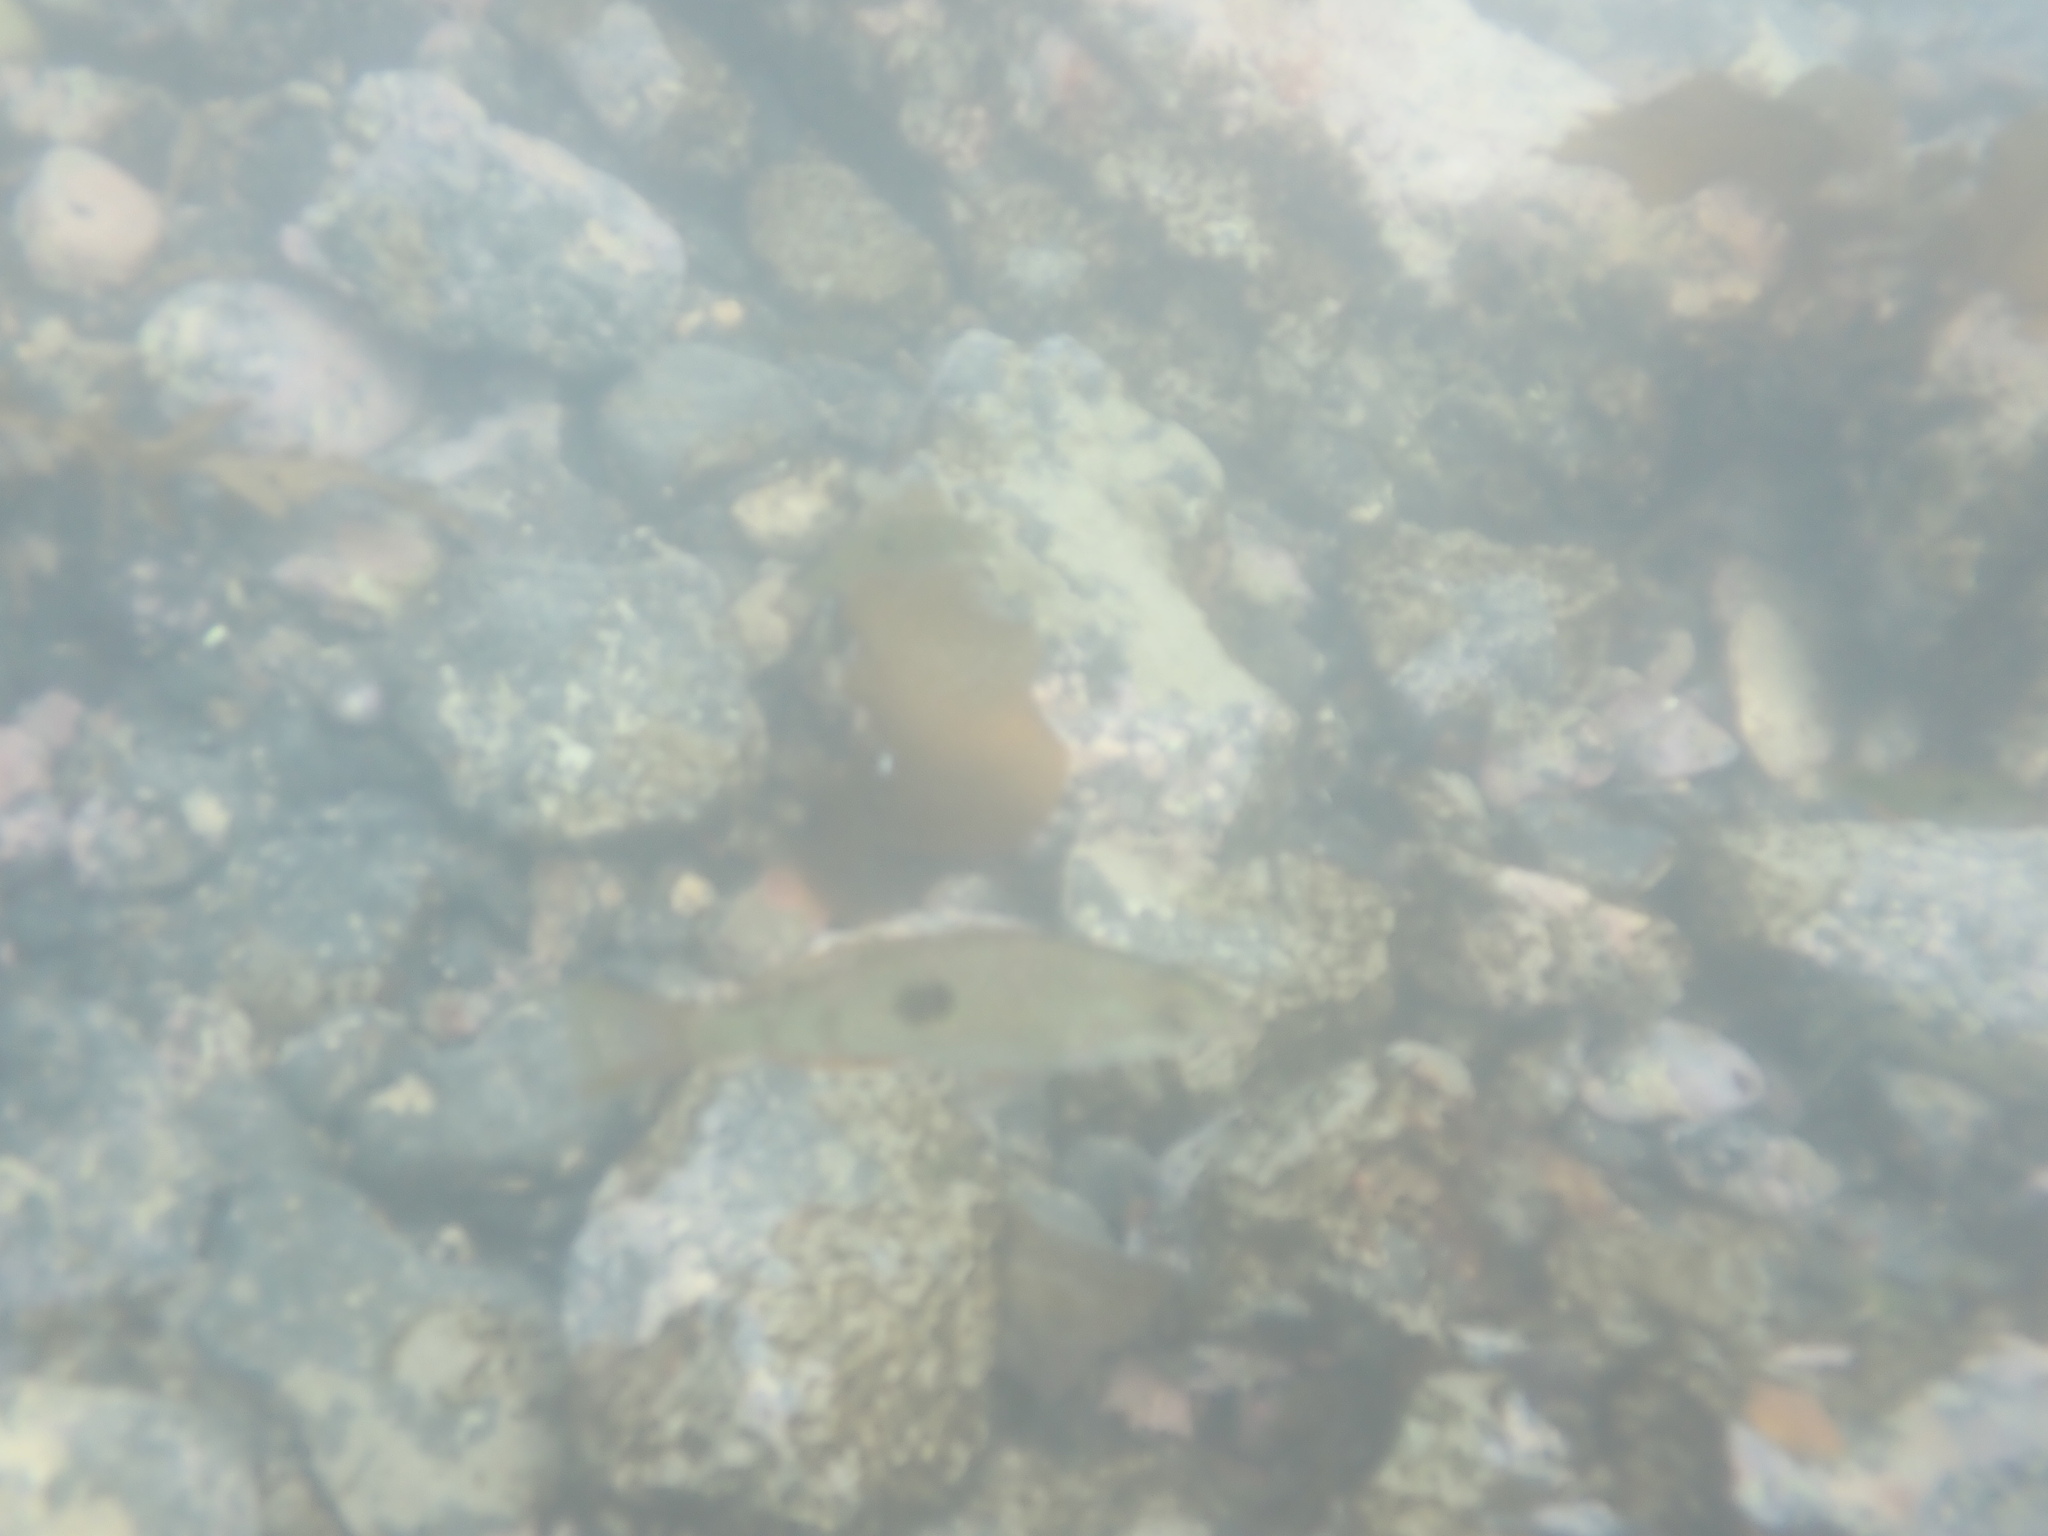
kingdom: Animalia
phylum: Chordata
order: Perciformes
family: Labridae
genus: Notolabrus
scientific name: Notolabrus celidotus
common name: Spotty
